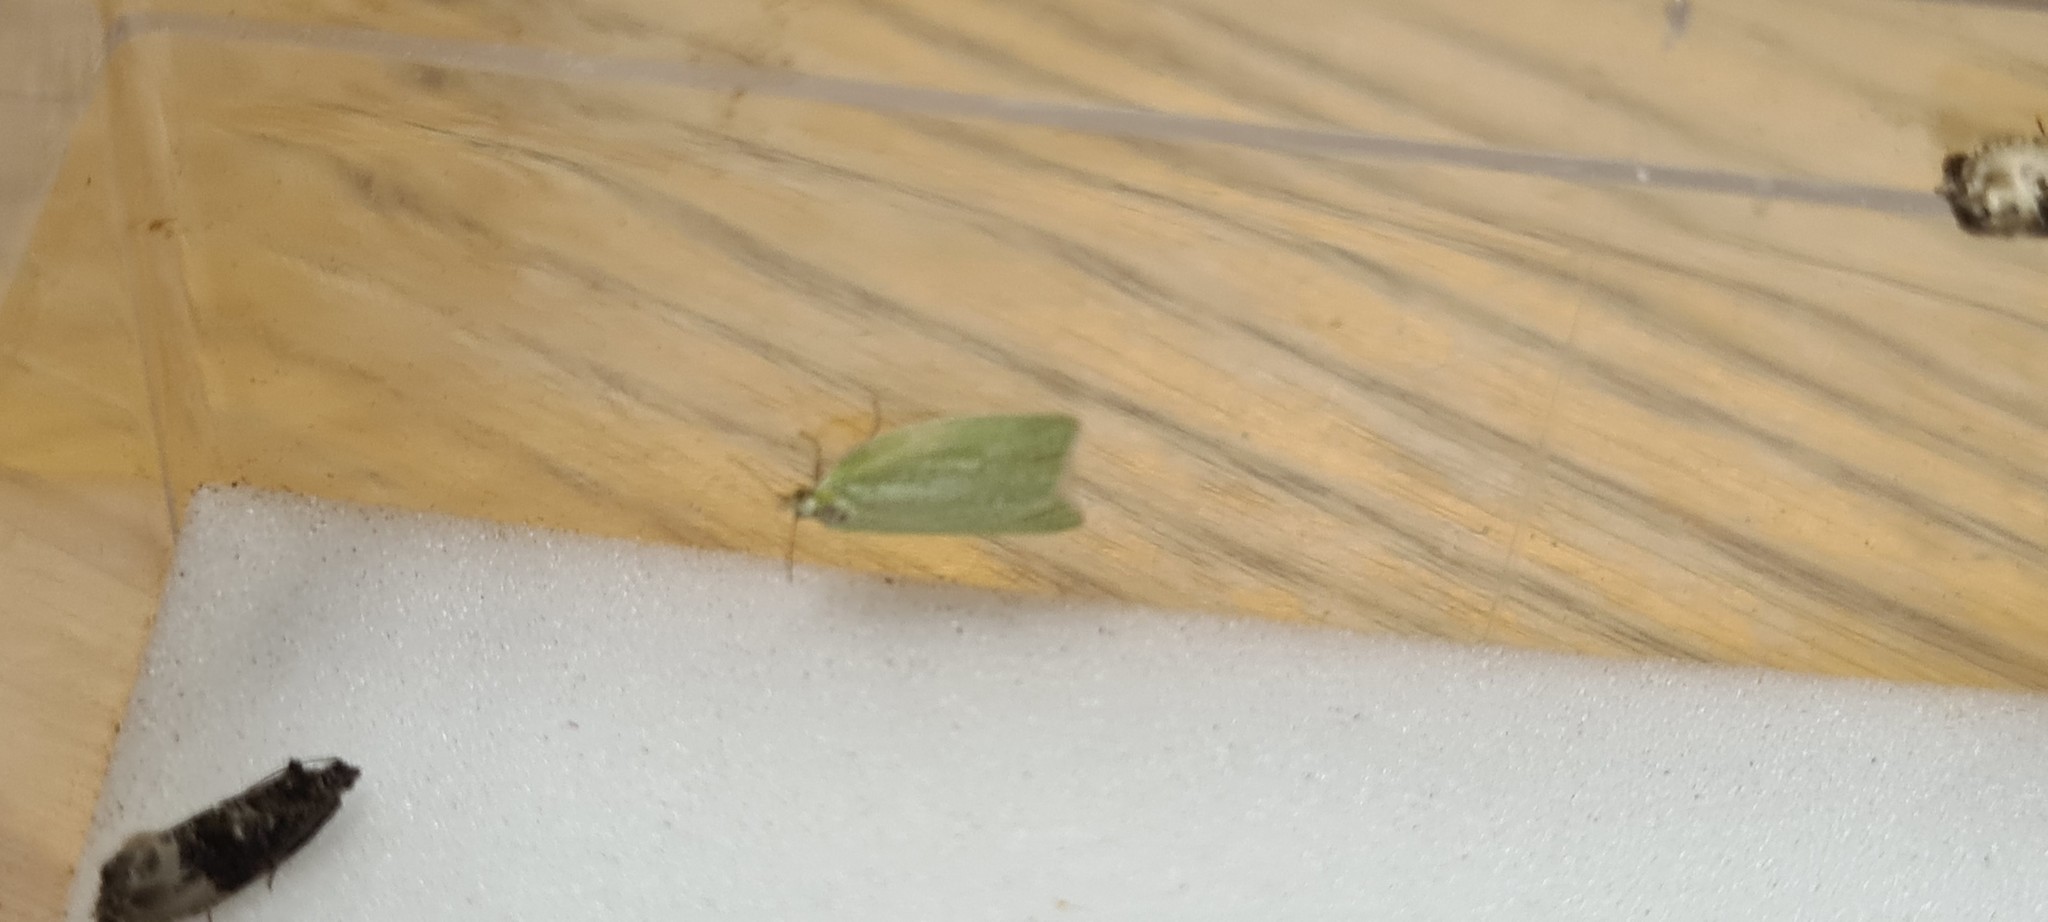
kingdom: Animalia
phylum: Arthropoda
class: Insecta
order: Lepidoptera
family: Tortricidae
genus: Tortrix
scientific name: Tortrix viridana
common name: Green oak tortrix
